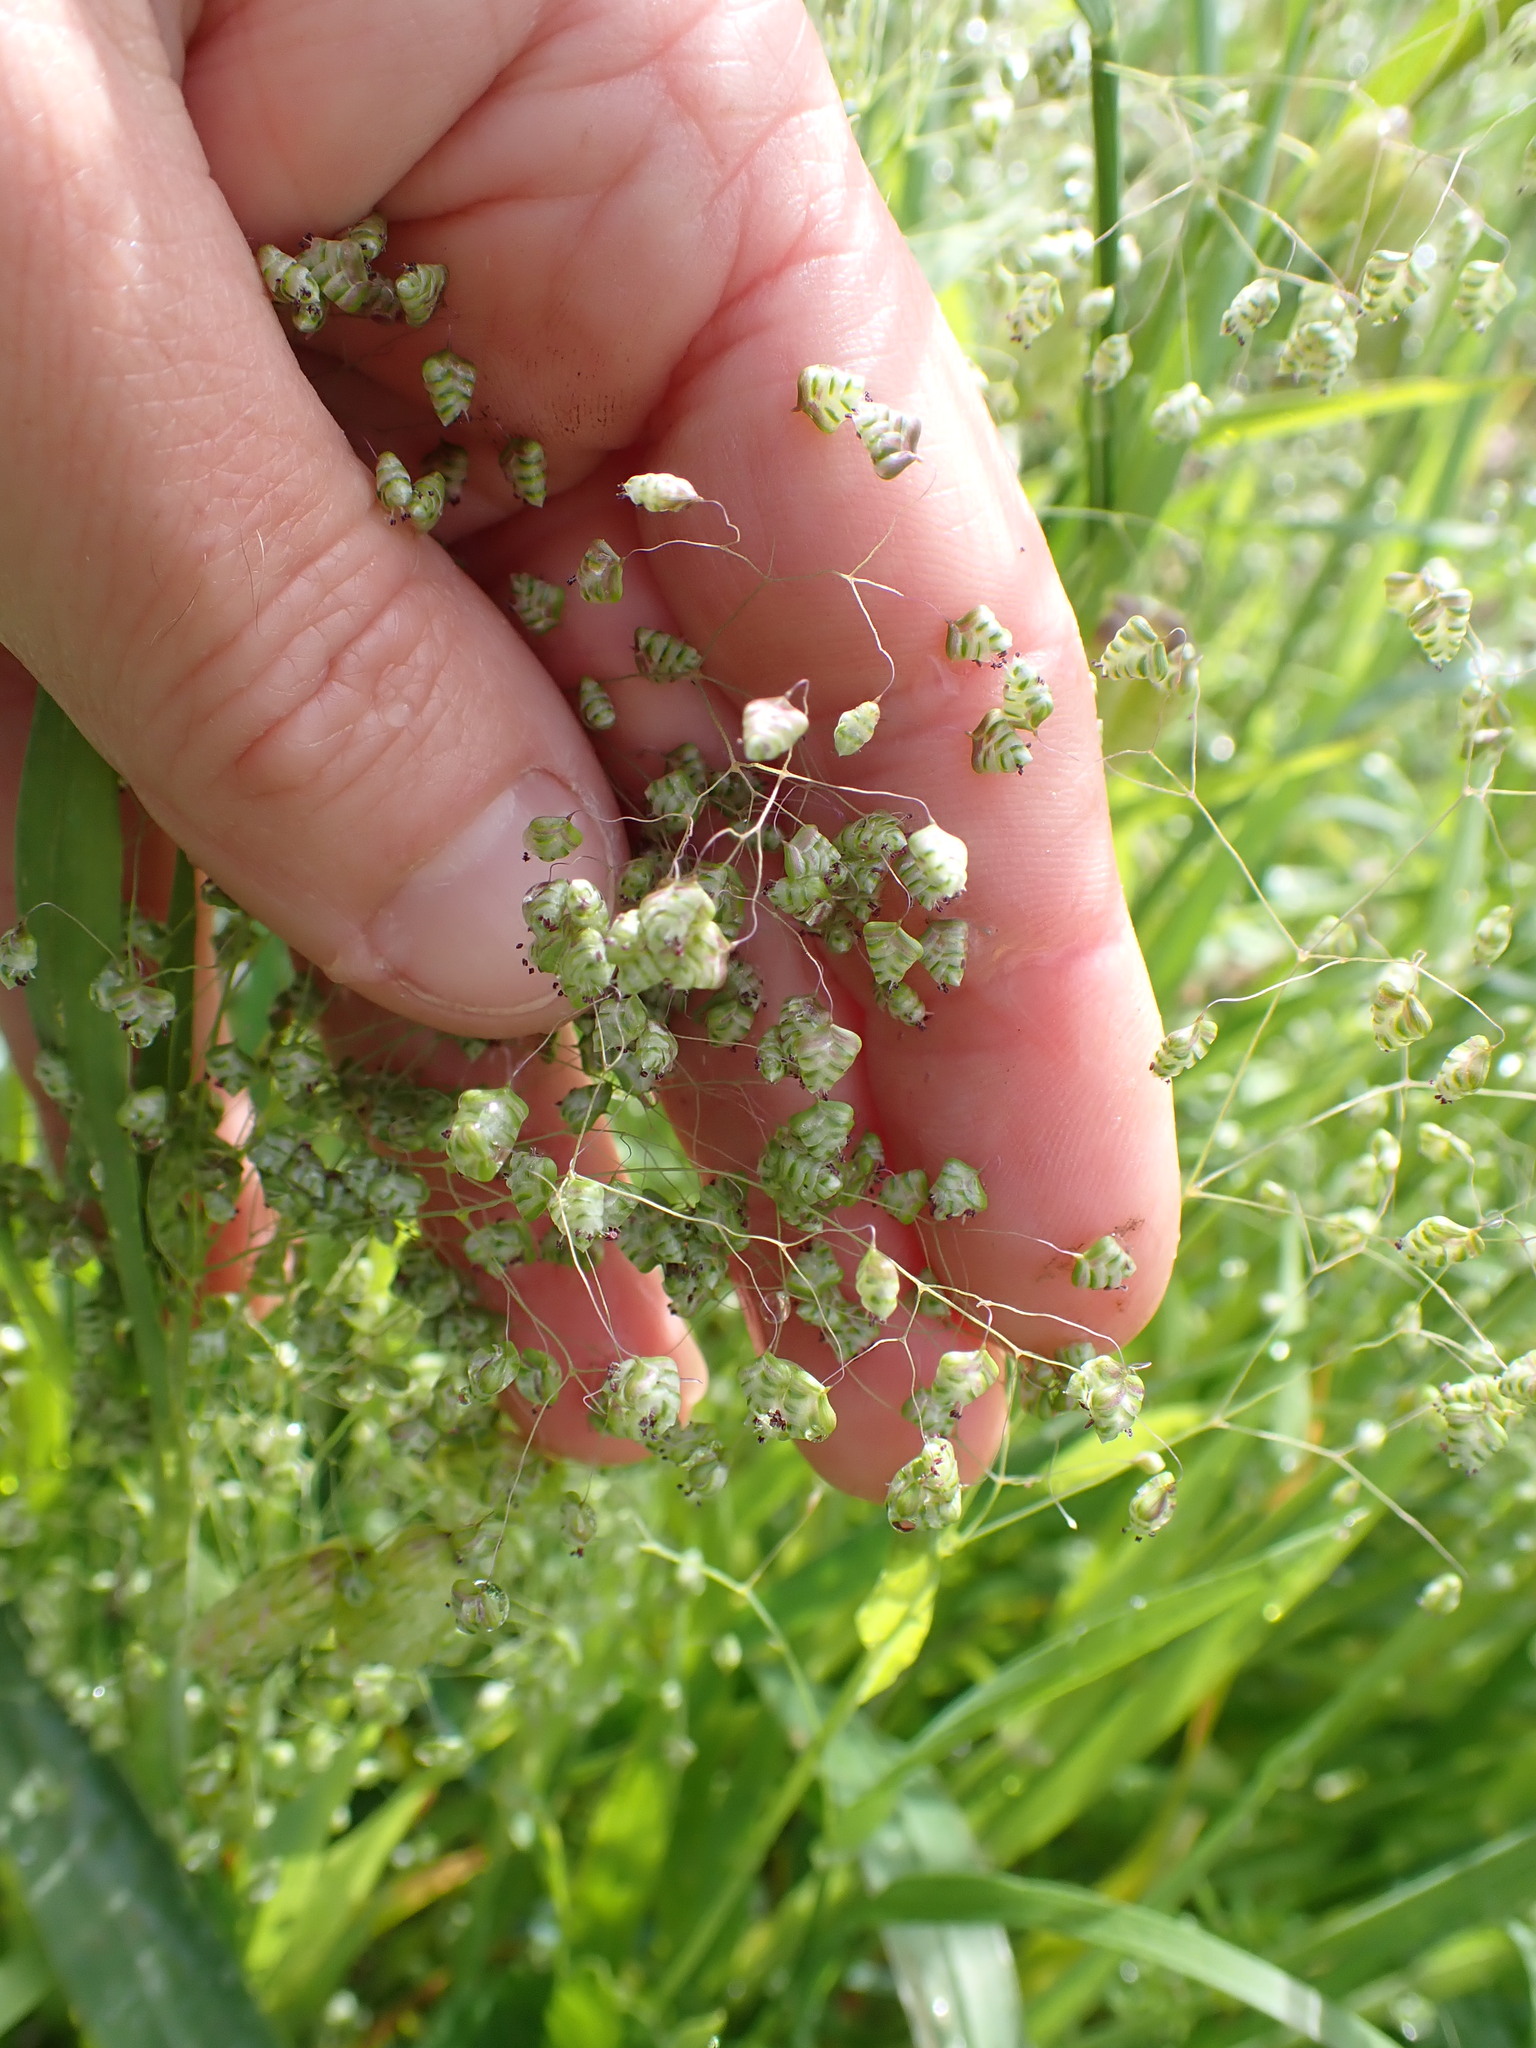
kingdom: Plantae
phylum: Tracheophyta
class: Liliopsida
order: Poales
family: Poaceae
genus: Briza
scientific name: Briza minor
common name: Lesser quaking-grass
